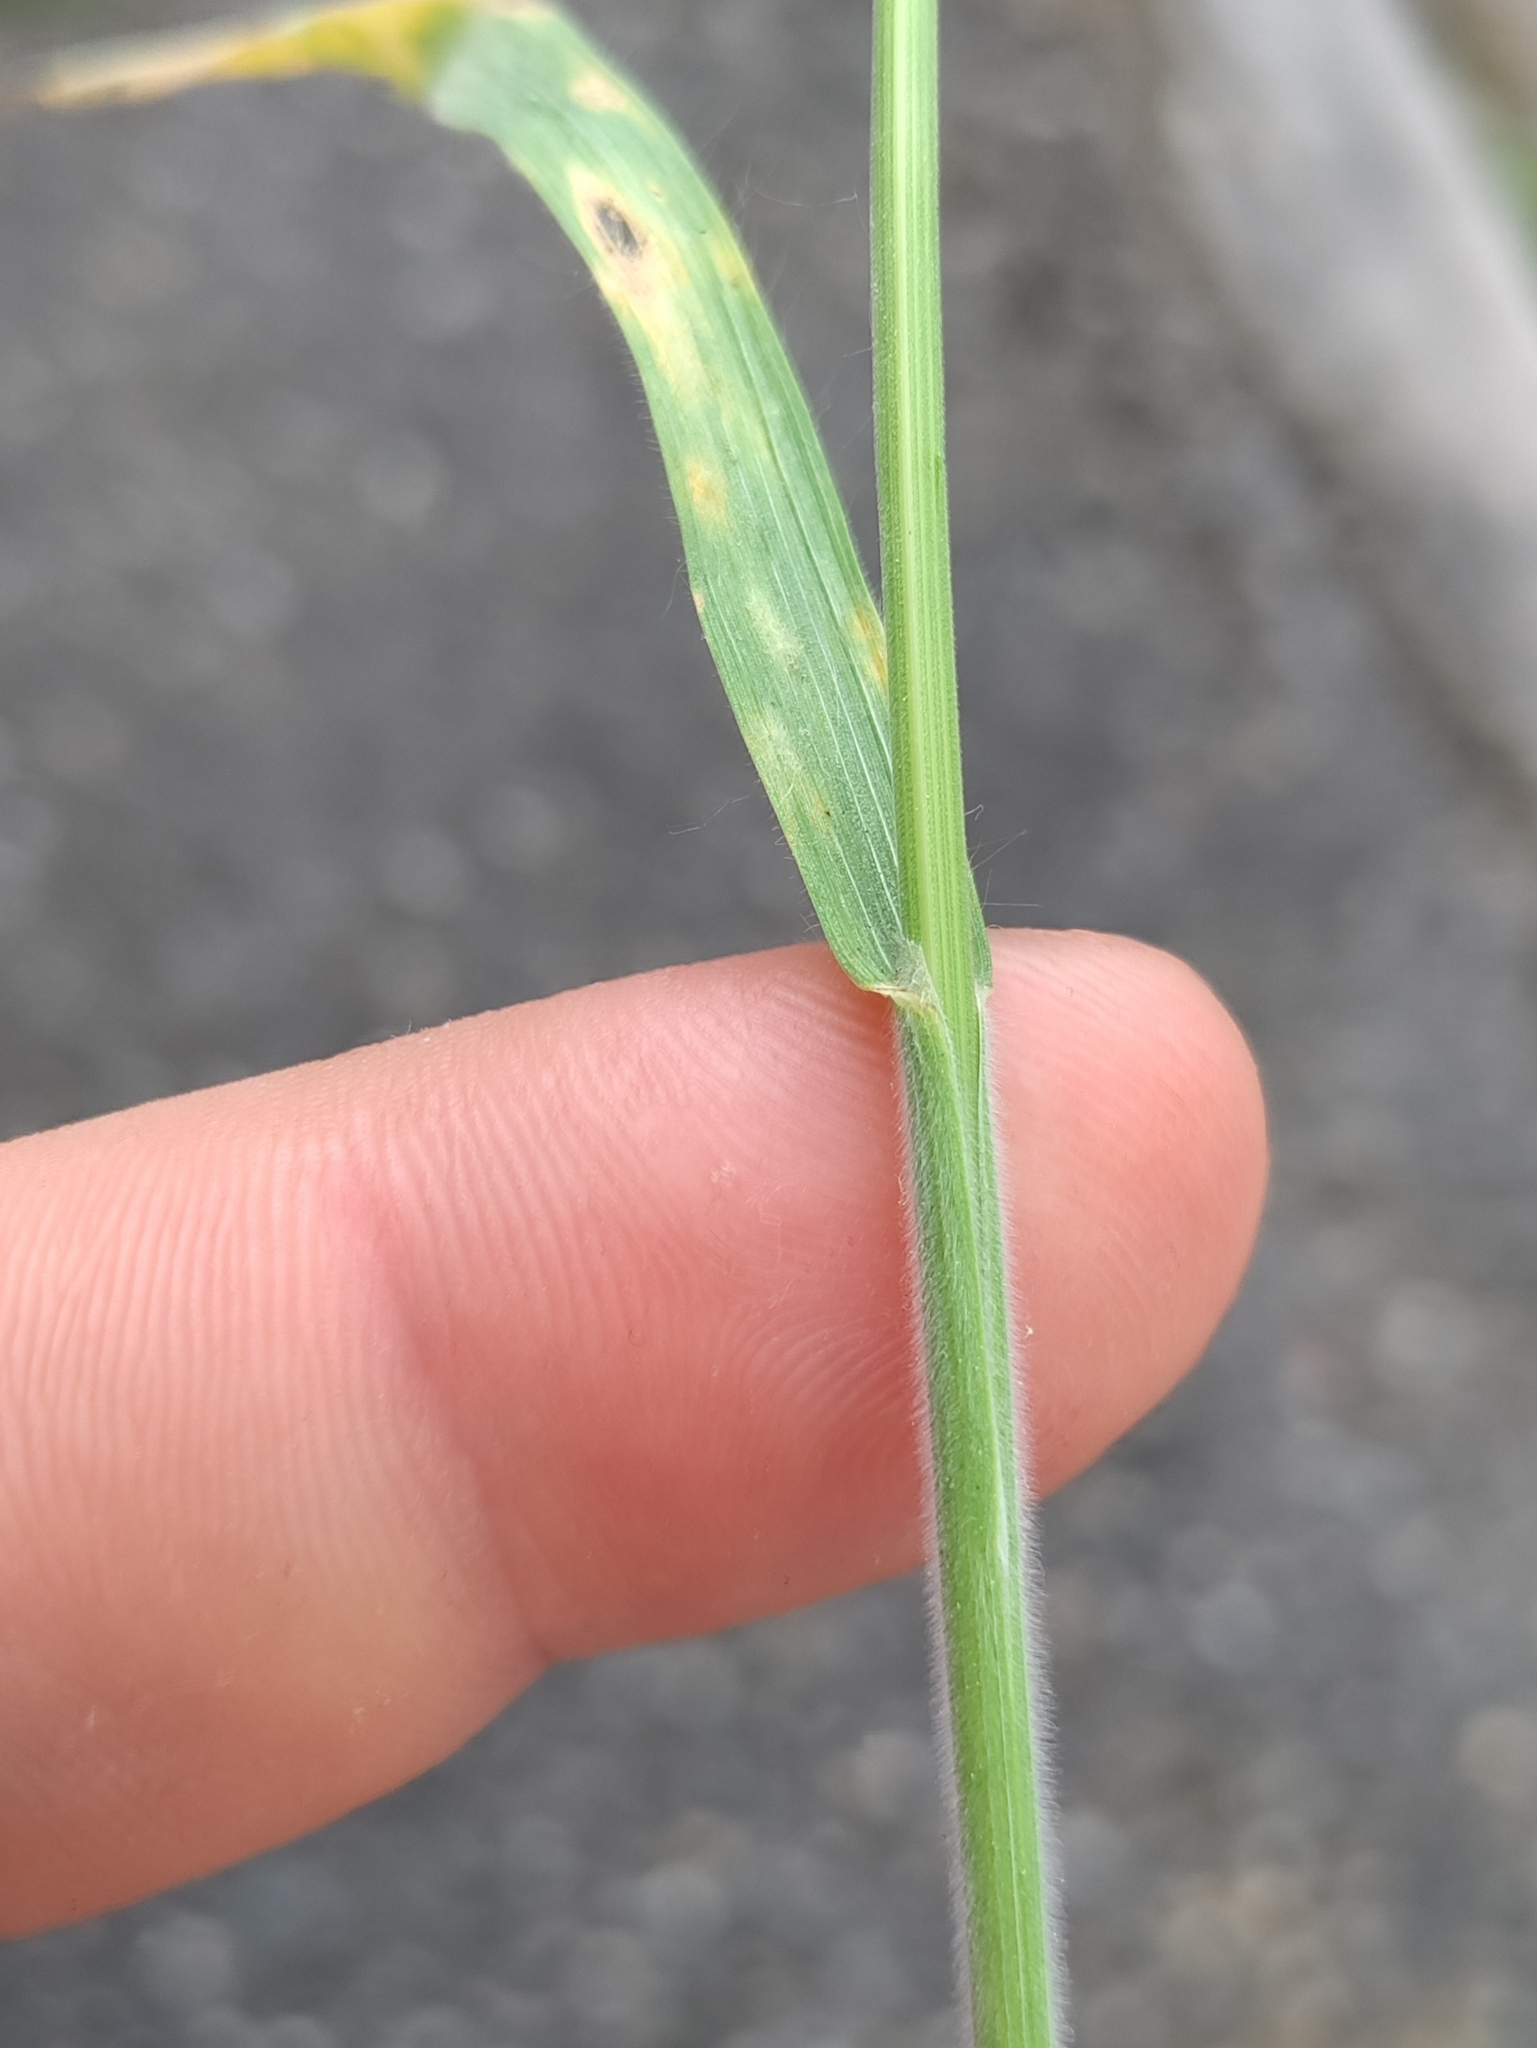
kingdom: Plantae
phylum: Tracheophyta
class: Liliopsida
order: Poales
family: Poaceae
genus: Bromus
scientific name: Bromus hordeaceus
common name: Soft brome
